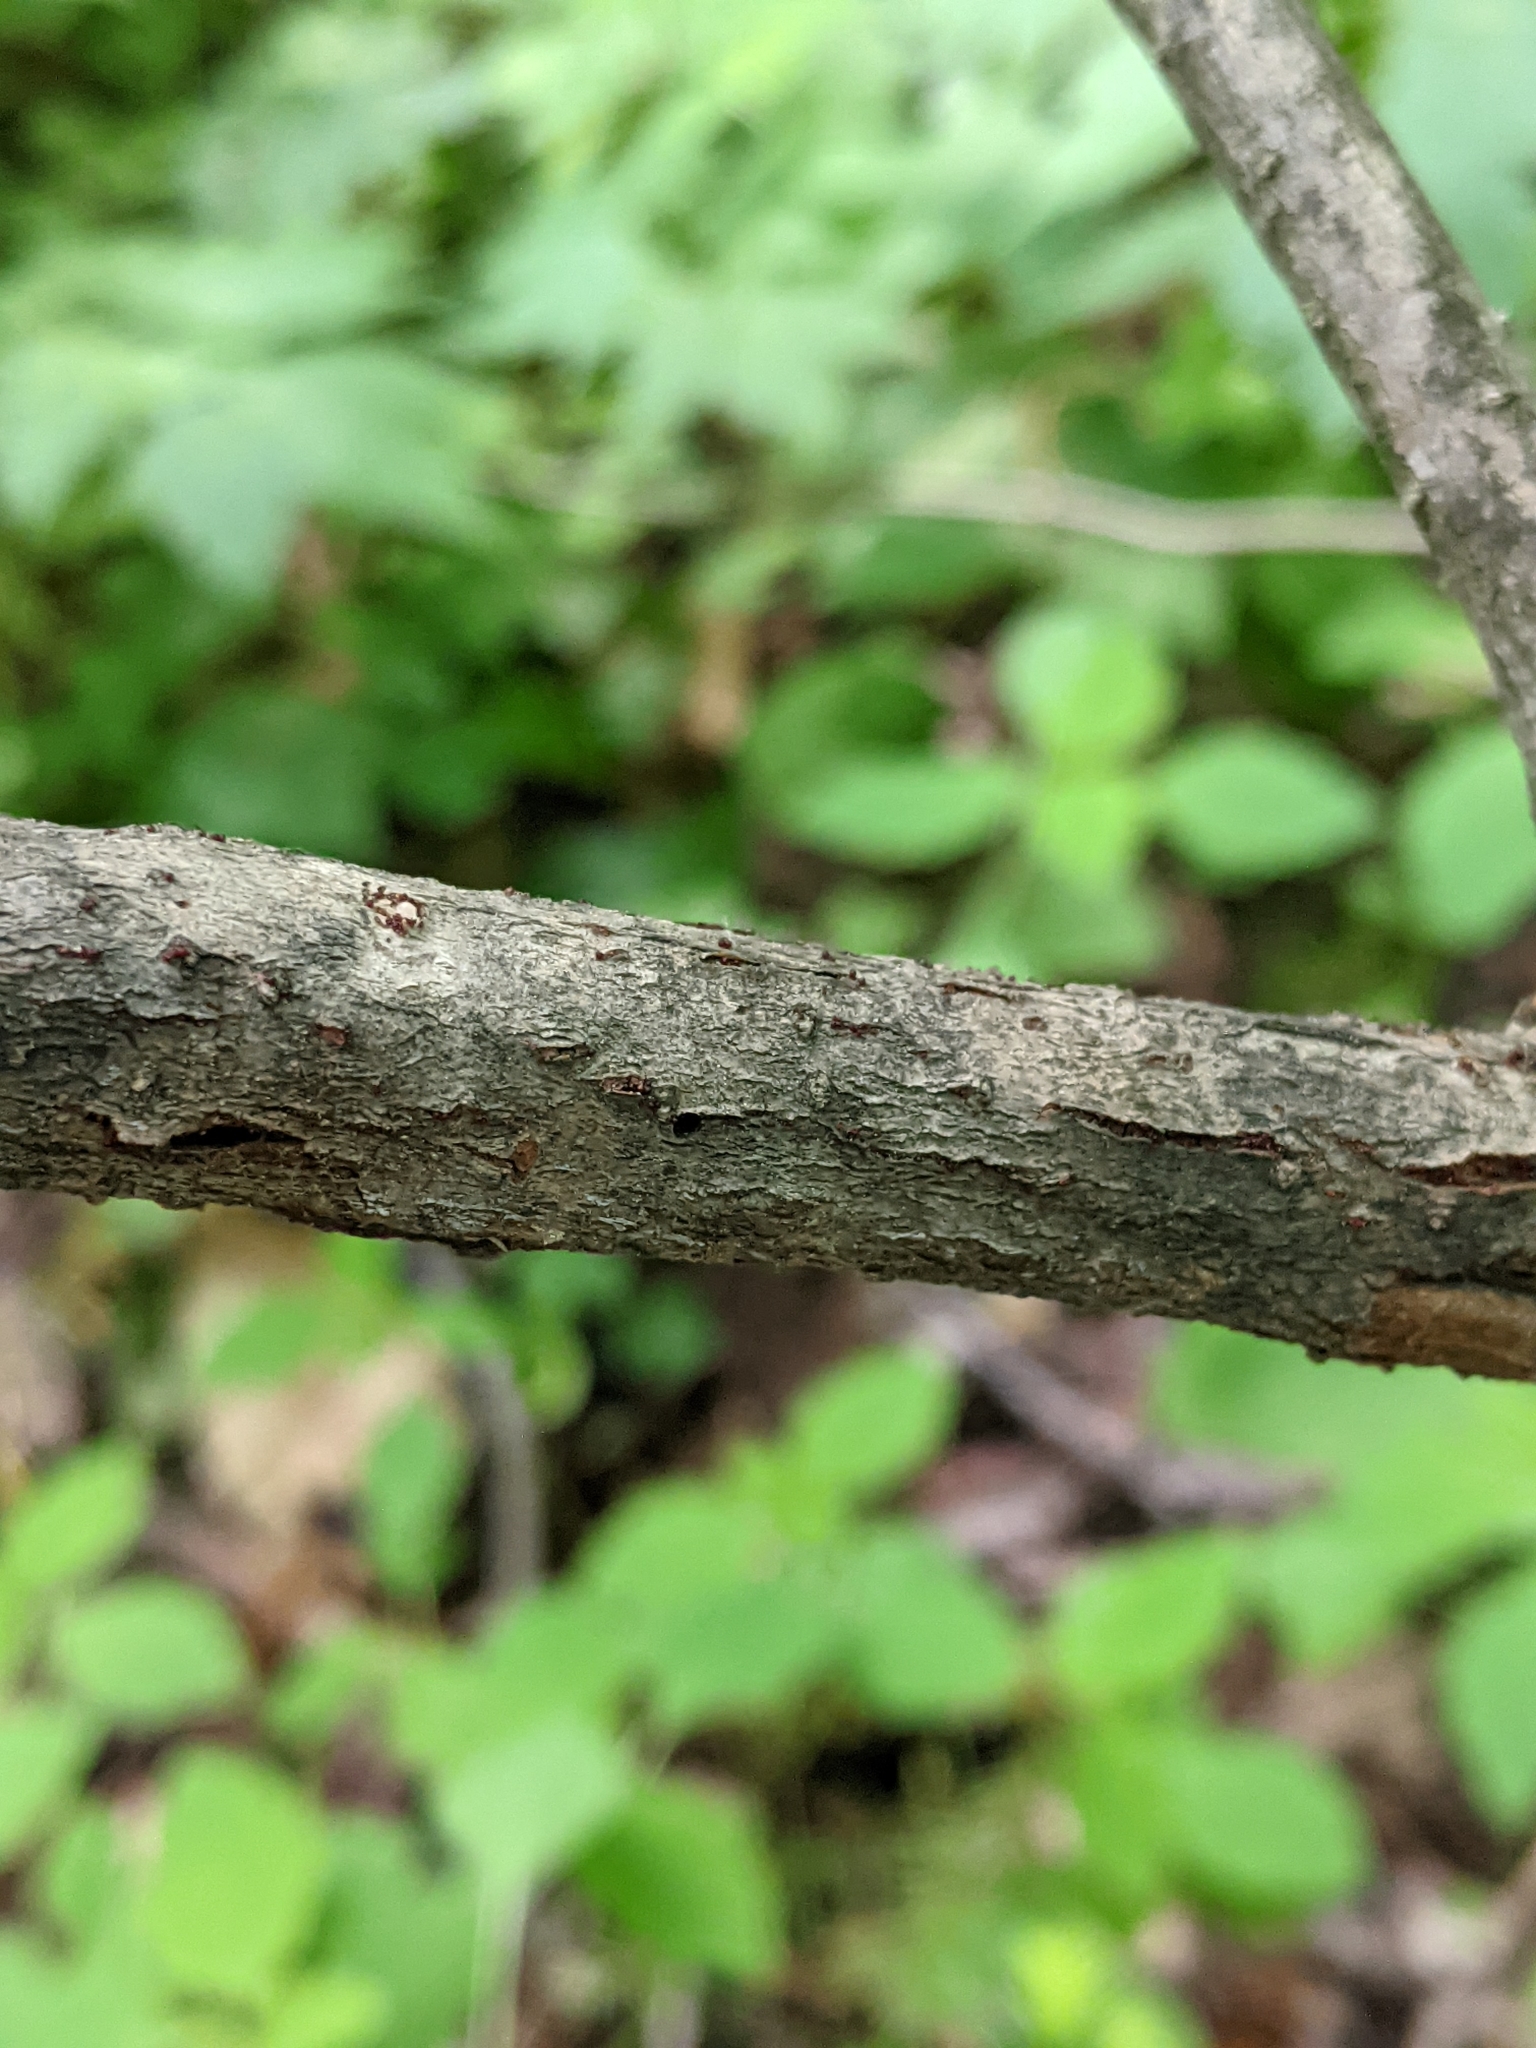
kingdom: Plantae
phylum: Tracheophyta
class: Magnoliopsida
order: Sapindales
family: Sapindaceae
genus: Acer
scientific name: Acer spicatum
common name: Mountain maple
